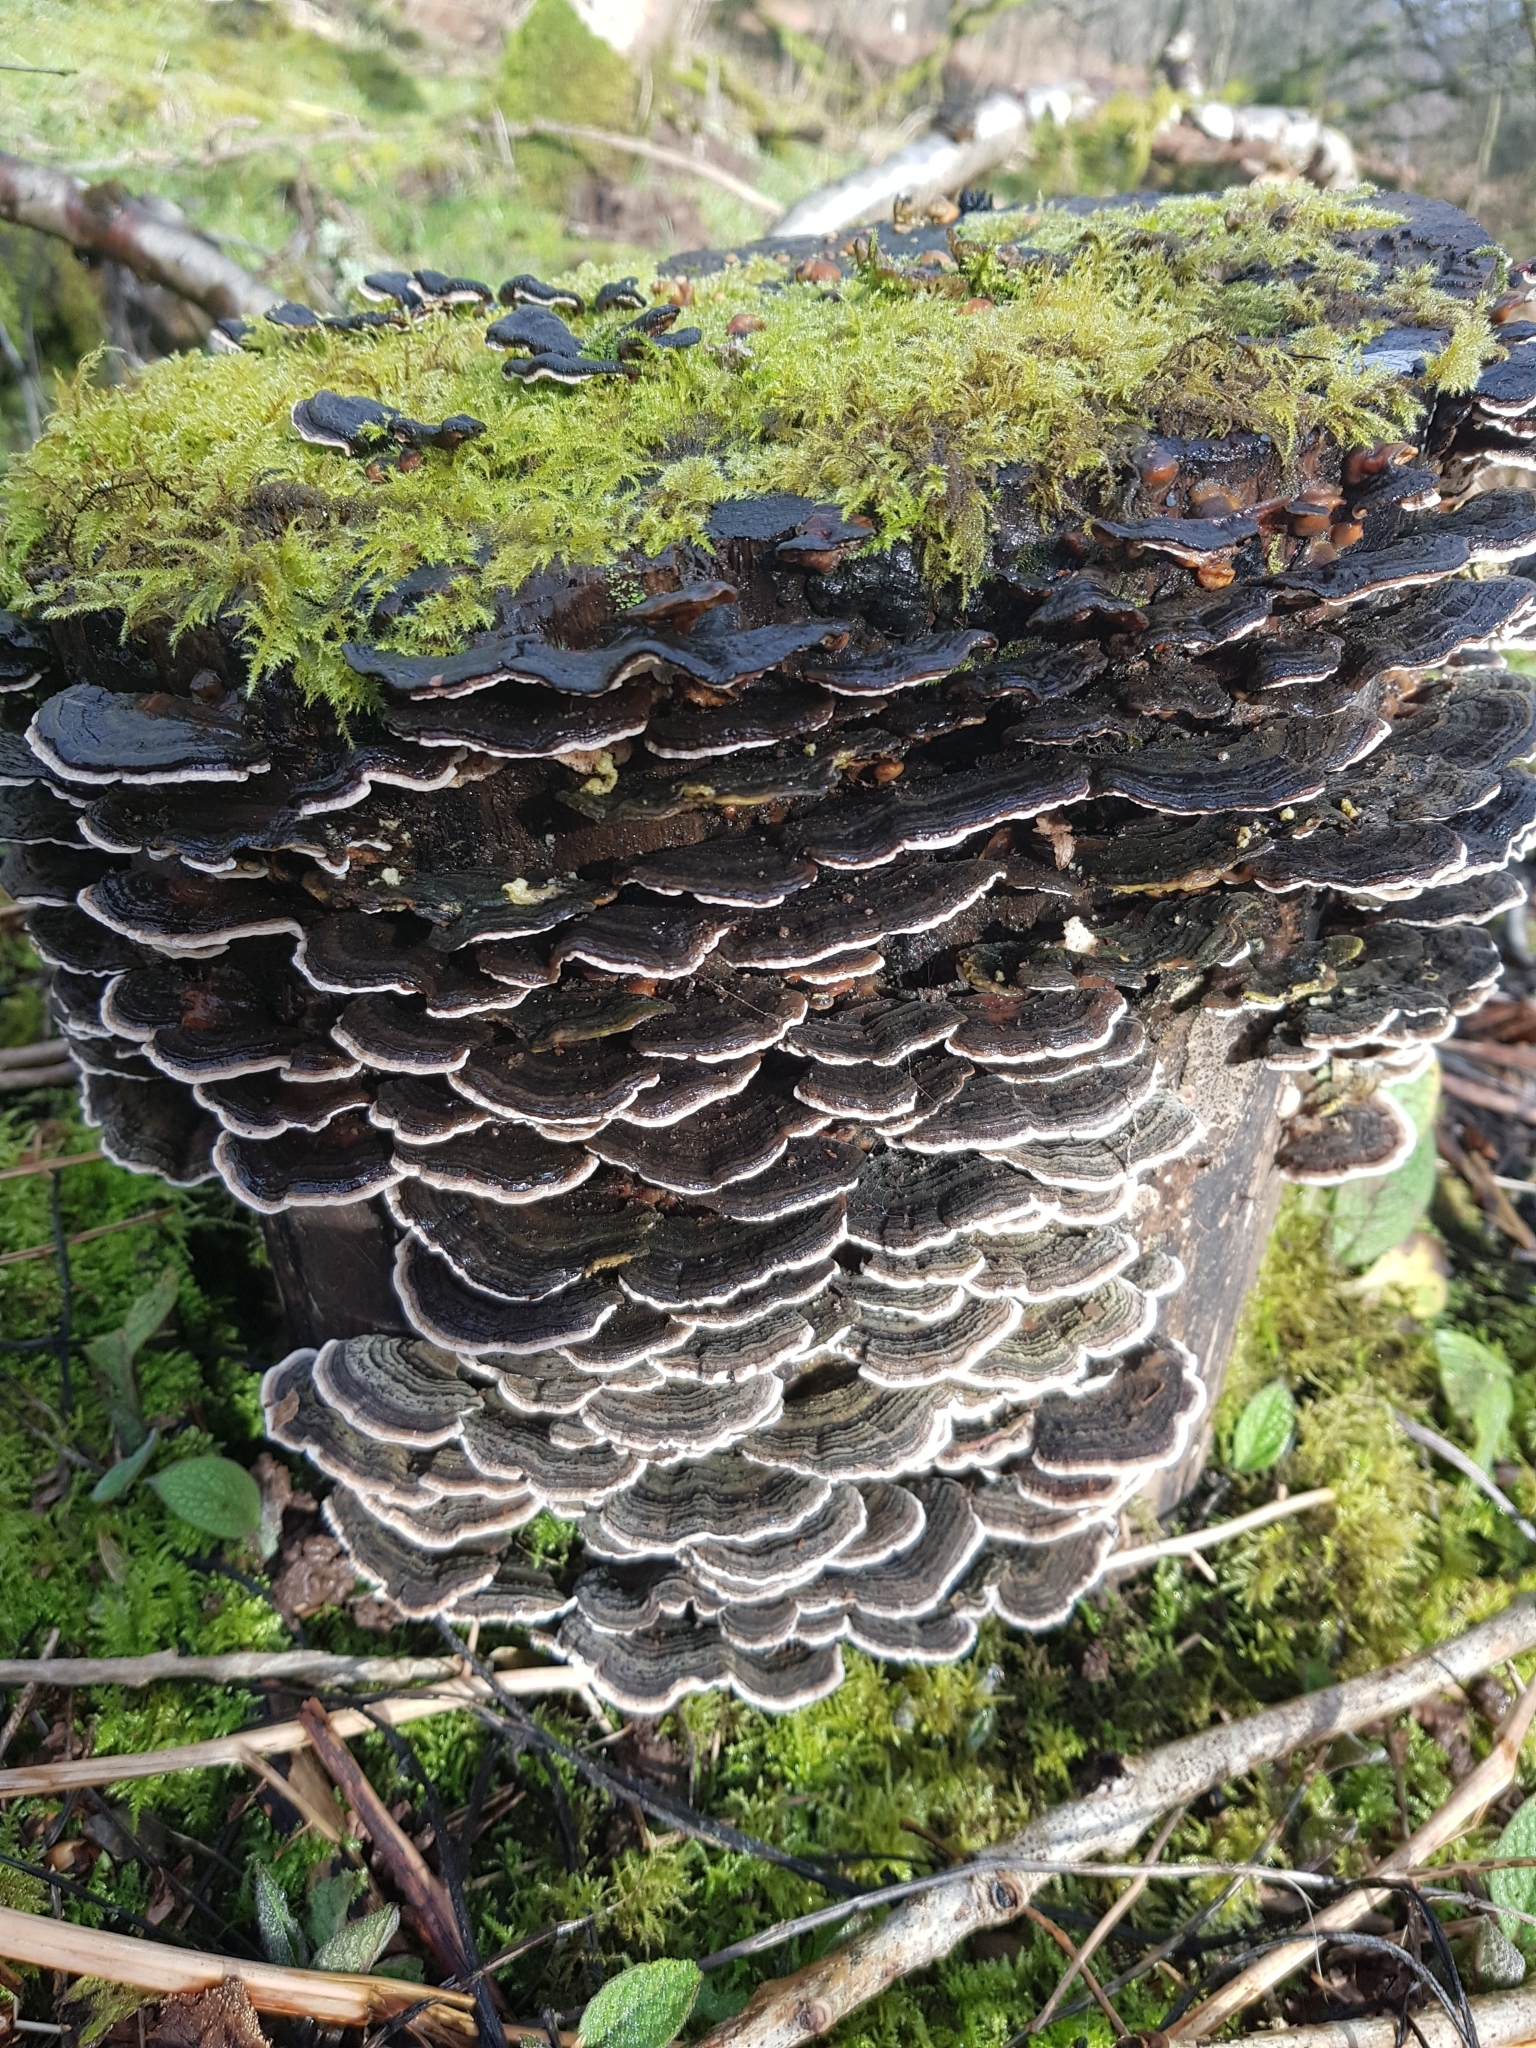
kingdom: Fungi
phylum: Basidiomycota
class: Agaricomycetes
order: Polyporales
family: Polyporaceae
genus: Trametes
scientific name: Trametes versicolor
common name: Turkeytail
